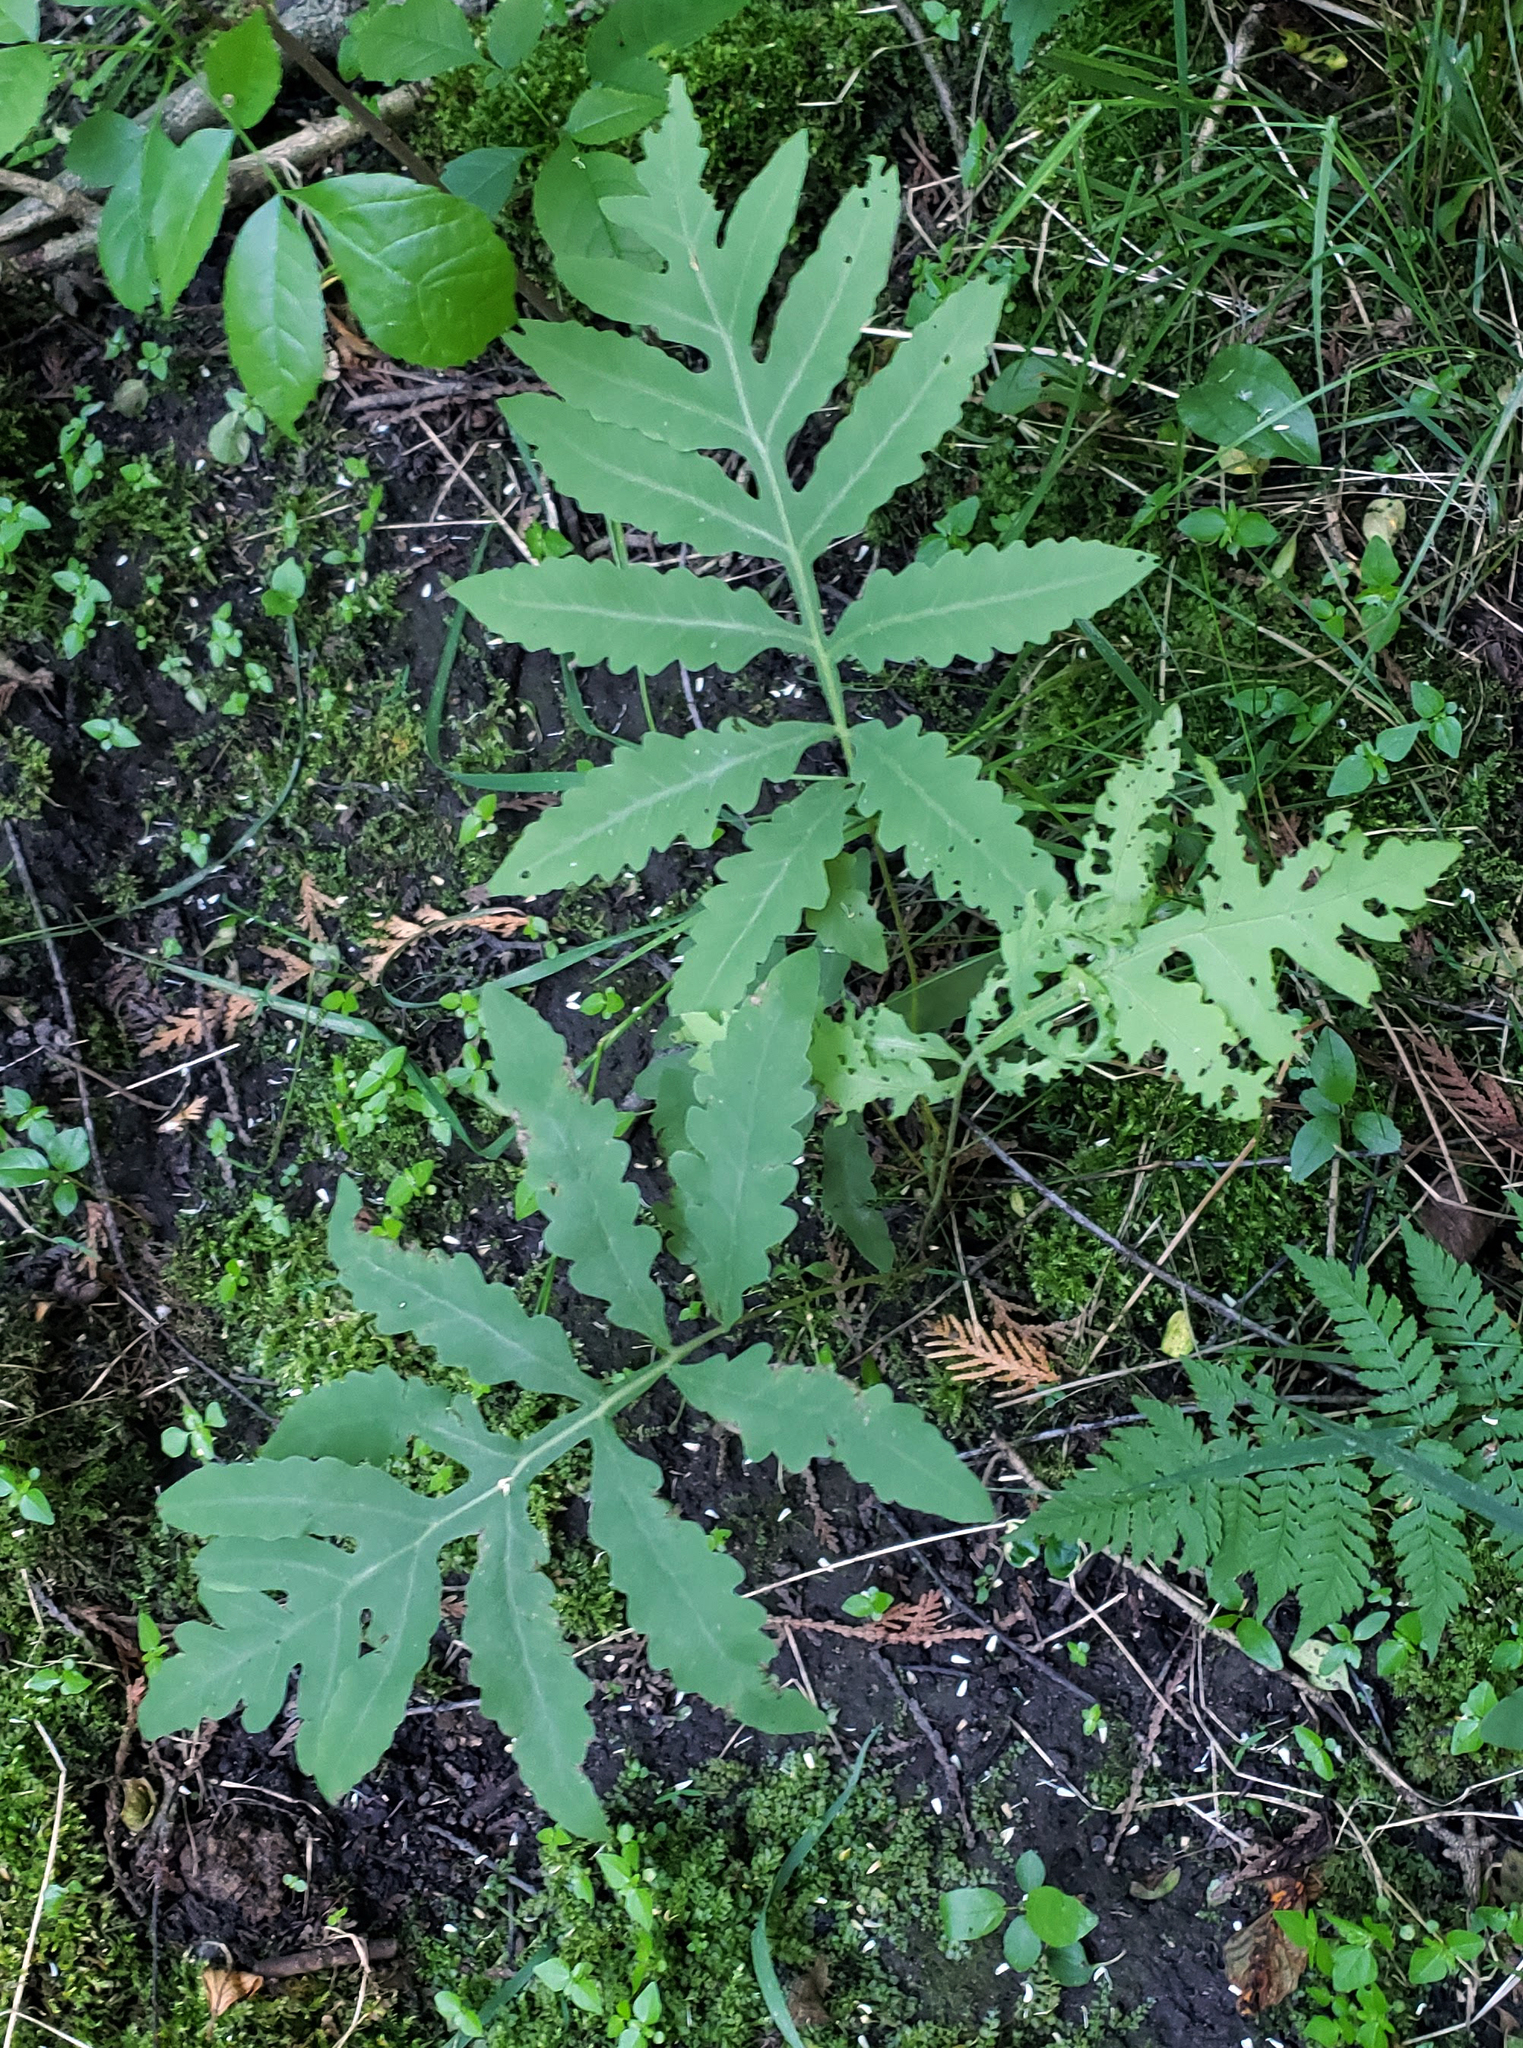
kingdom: Plantae
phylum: Tracheophyta
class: Polypodiopsida
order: Polypodiales
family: Onocleaceae
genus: Onoclea
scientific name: Onoclea sensibilis
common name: Sensitive fern
